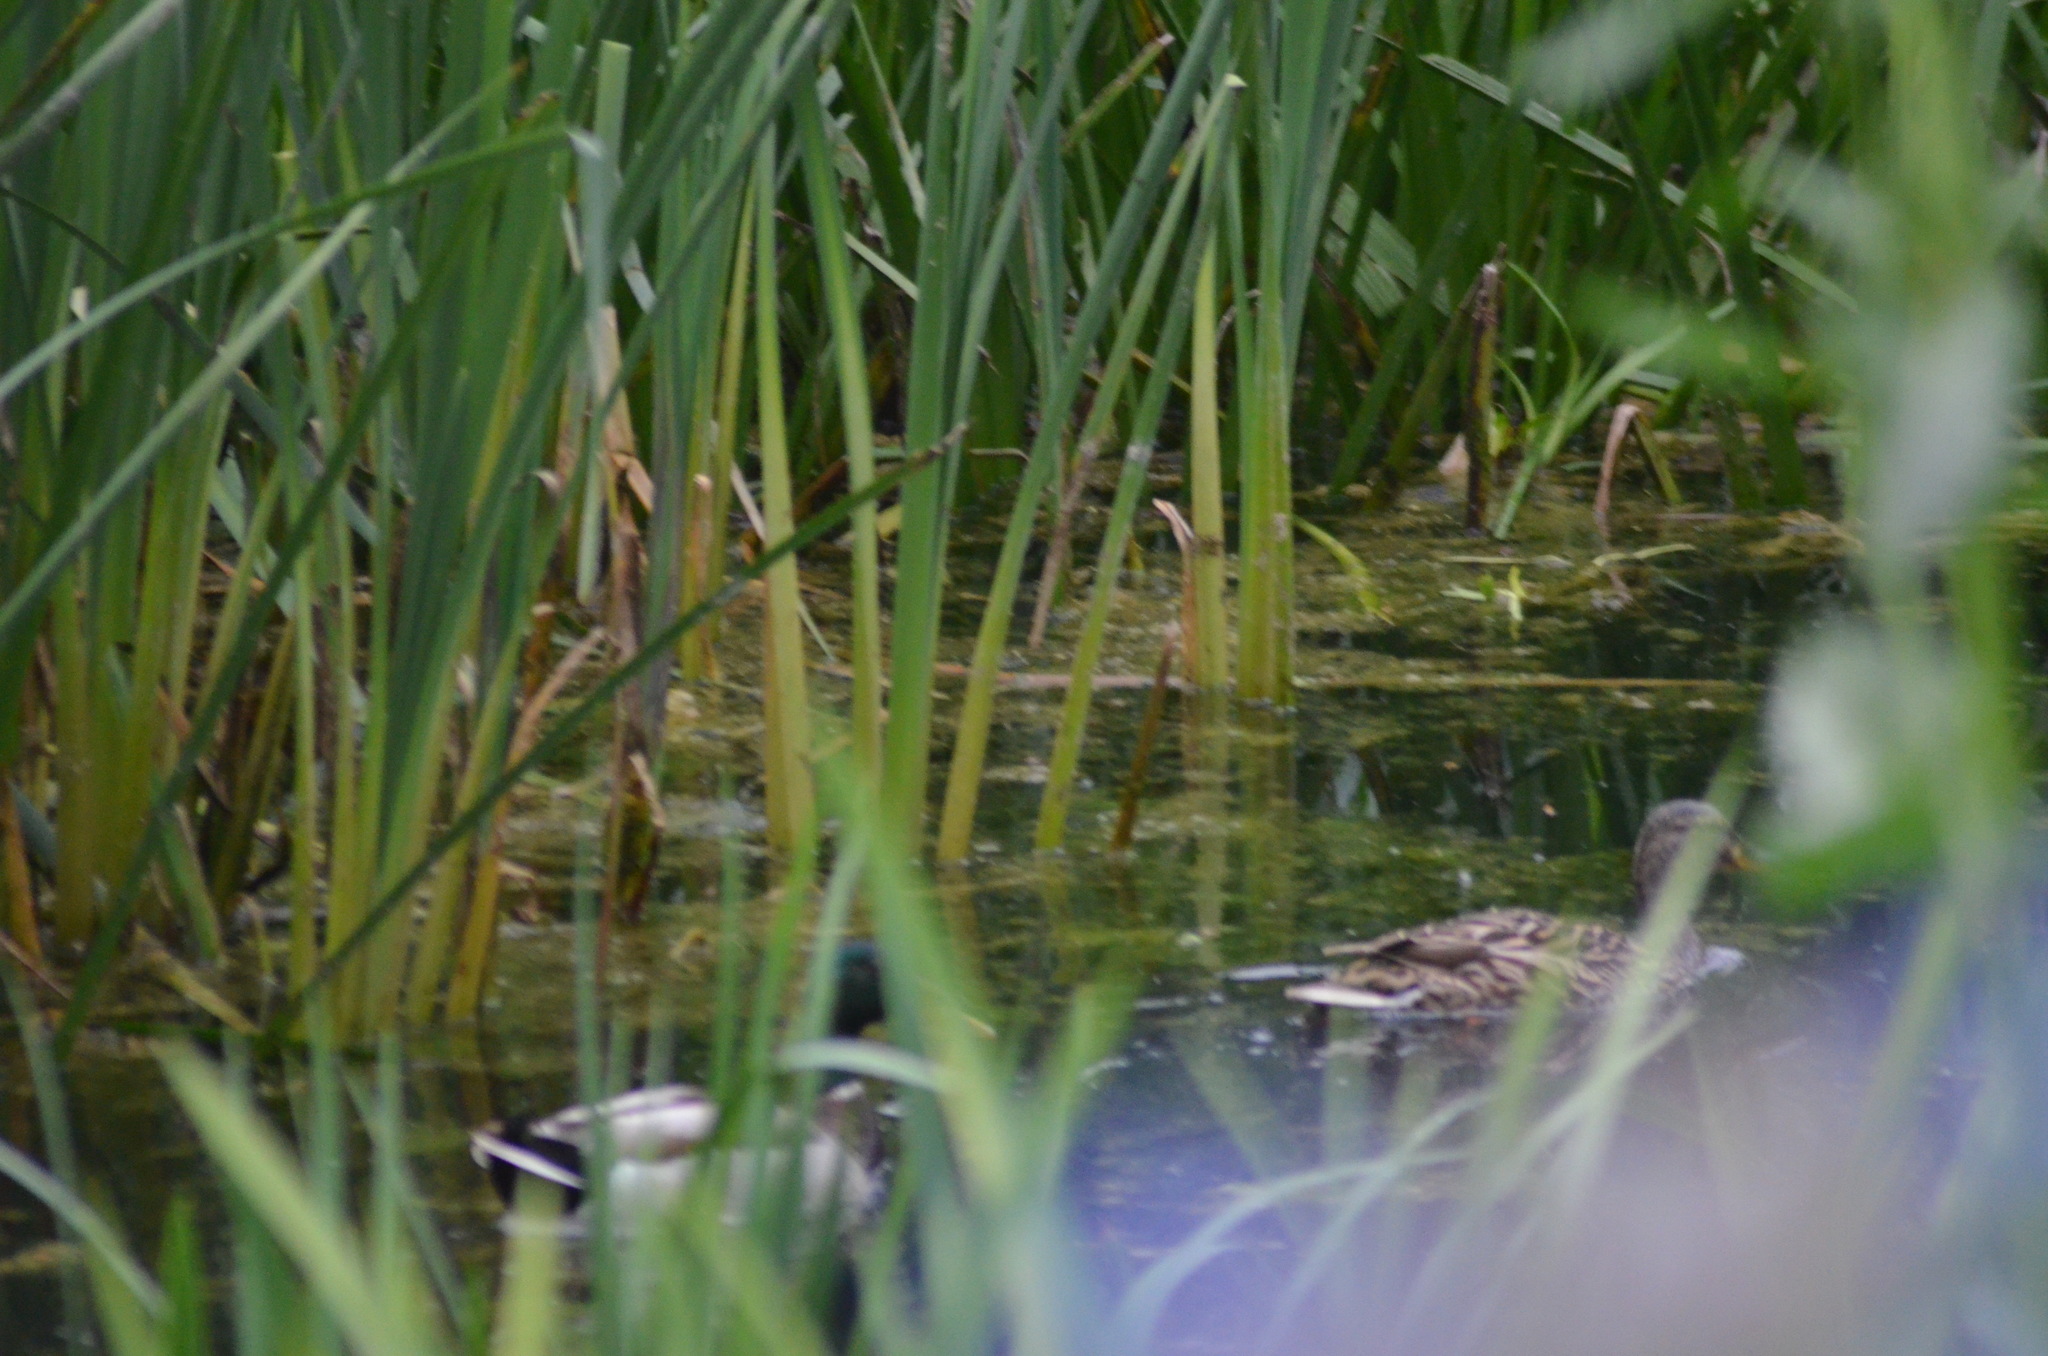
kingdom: Animalia
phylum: Chordata
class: Aves
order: Anseriformes
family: Anatidae
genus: Anas
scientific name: Anas platyrhynchos
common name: Mallard
